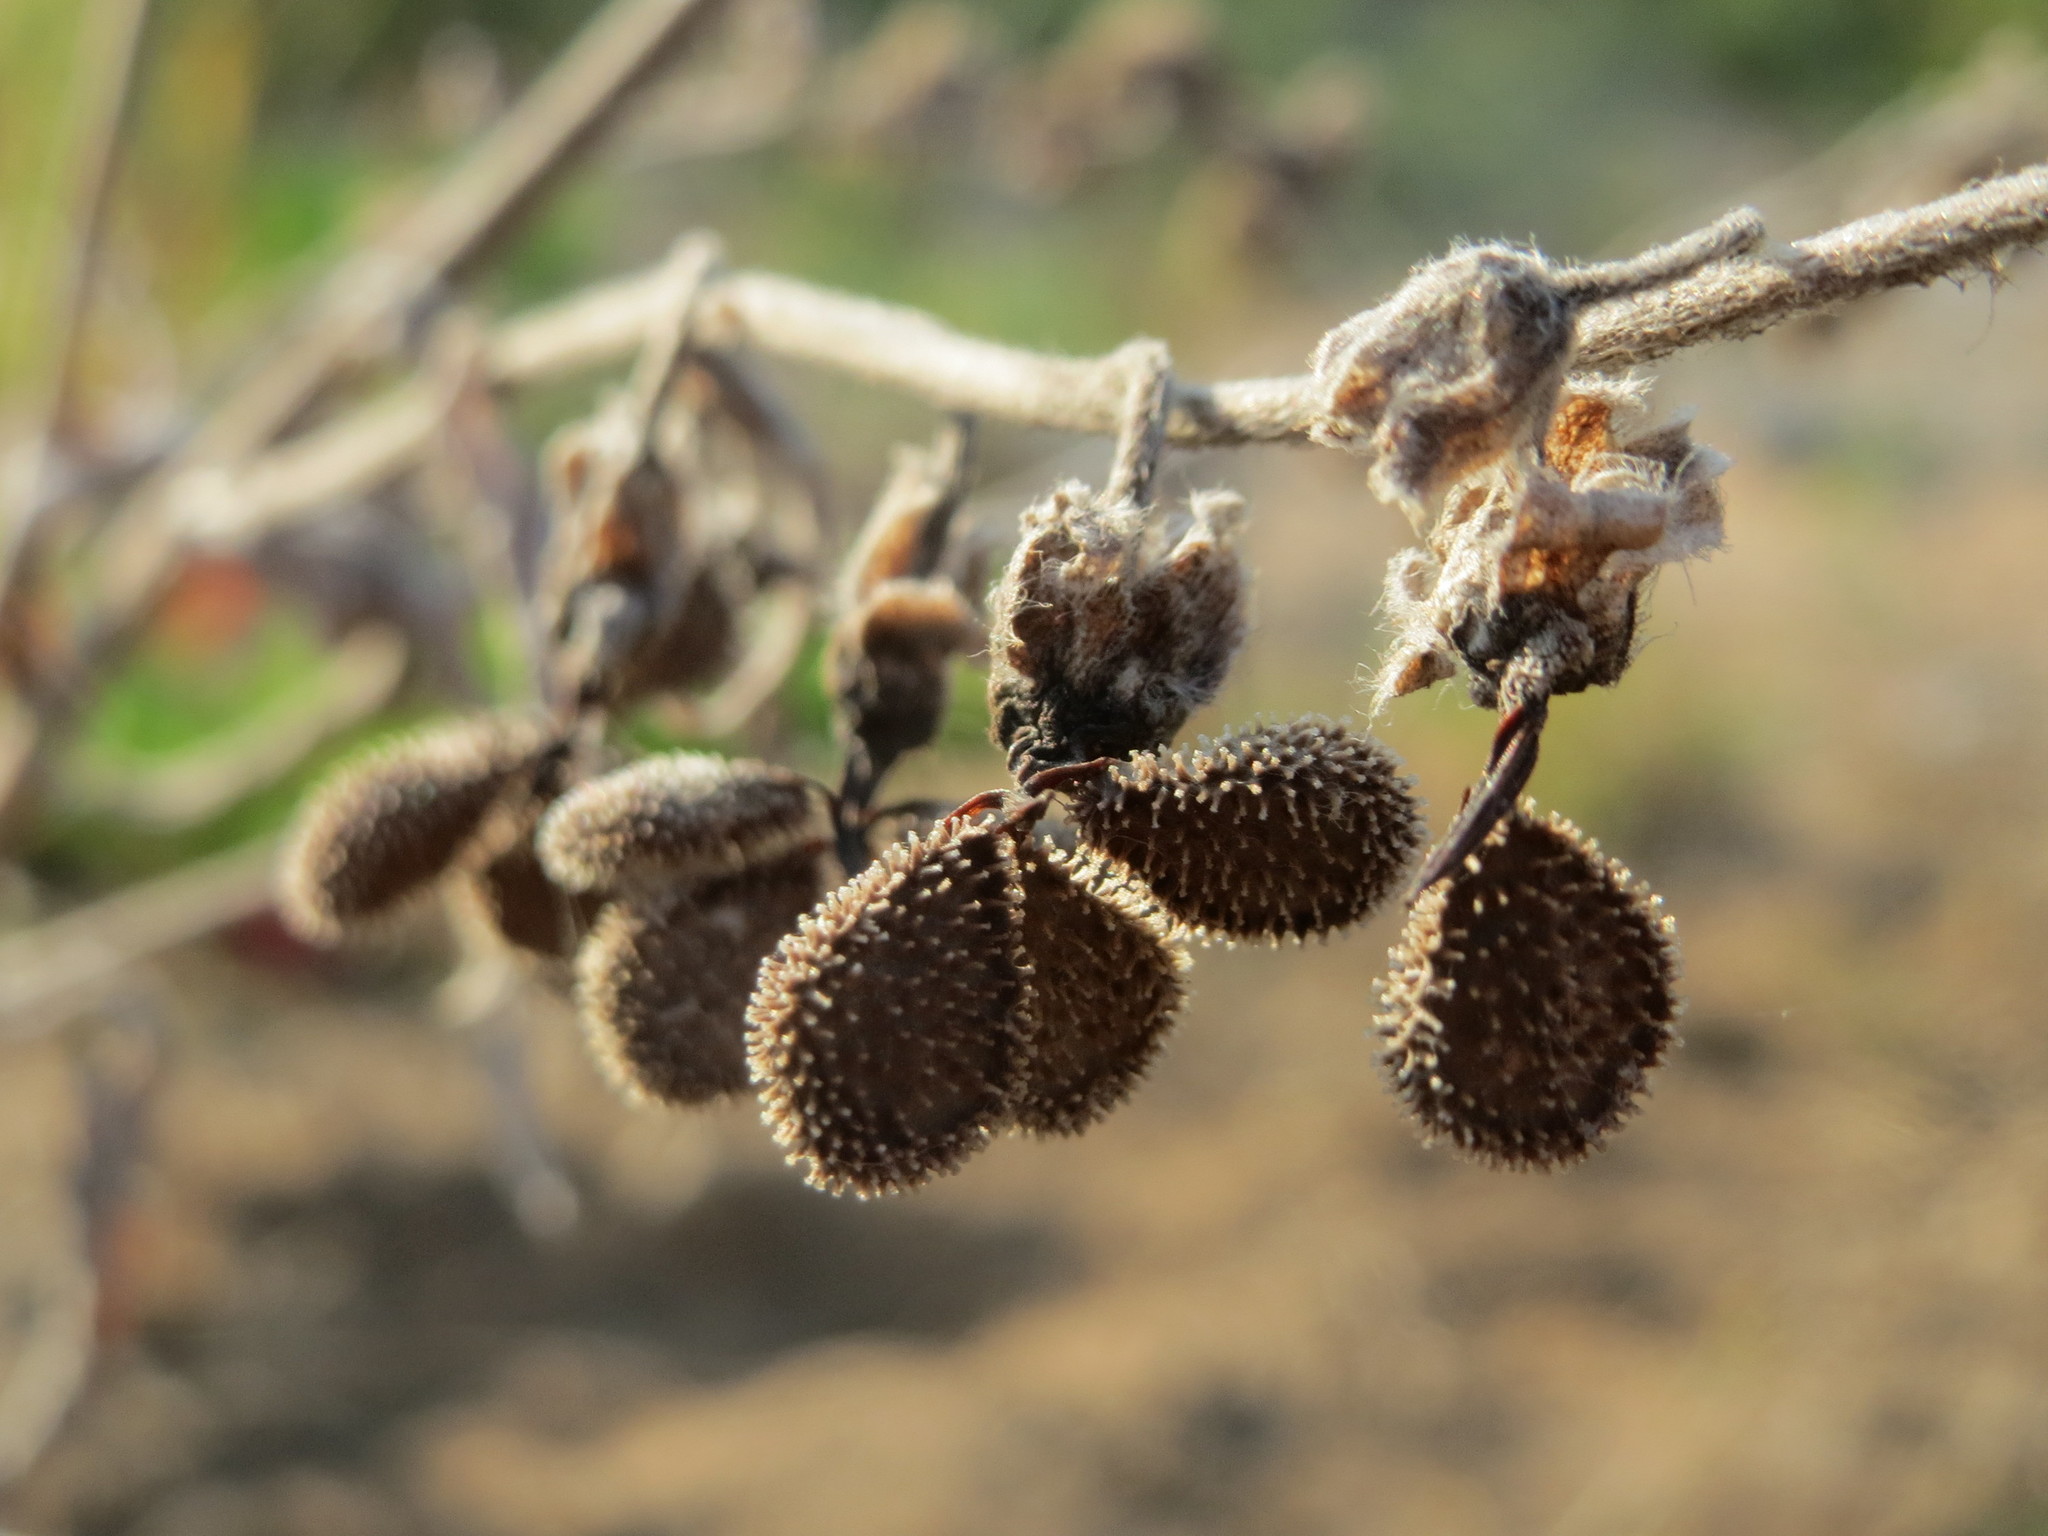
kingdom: Plantae
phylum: Tracheophyta
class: Magnoliopsida
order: Boraginales
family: Boraginaceae
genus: Cynoglossum
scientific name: Cynoglossum officinale
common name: Hound's-tongue
